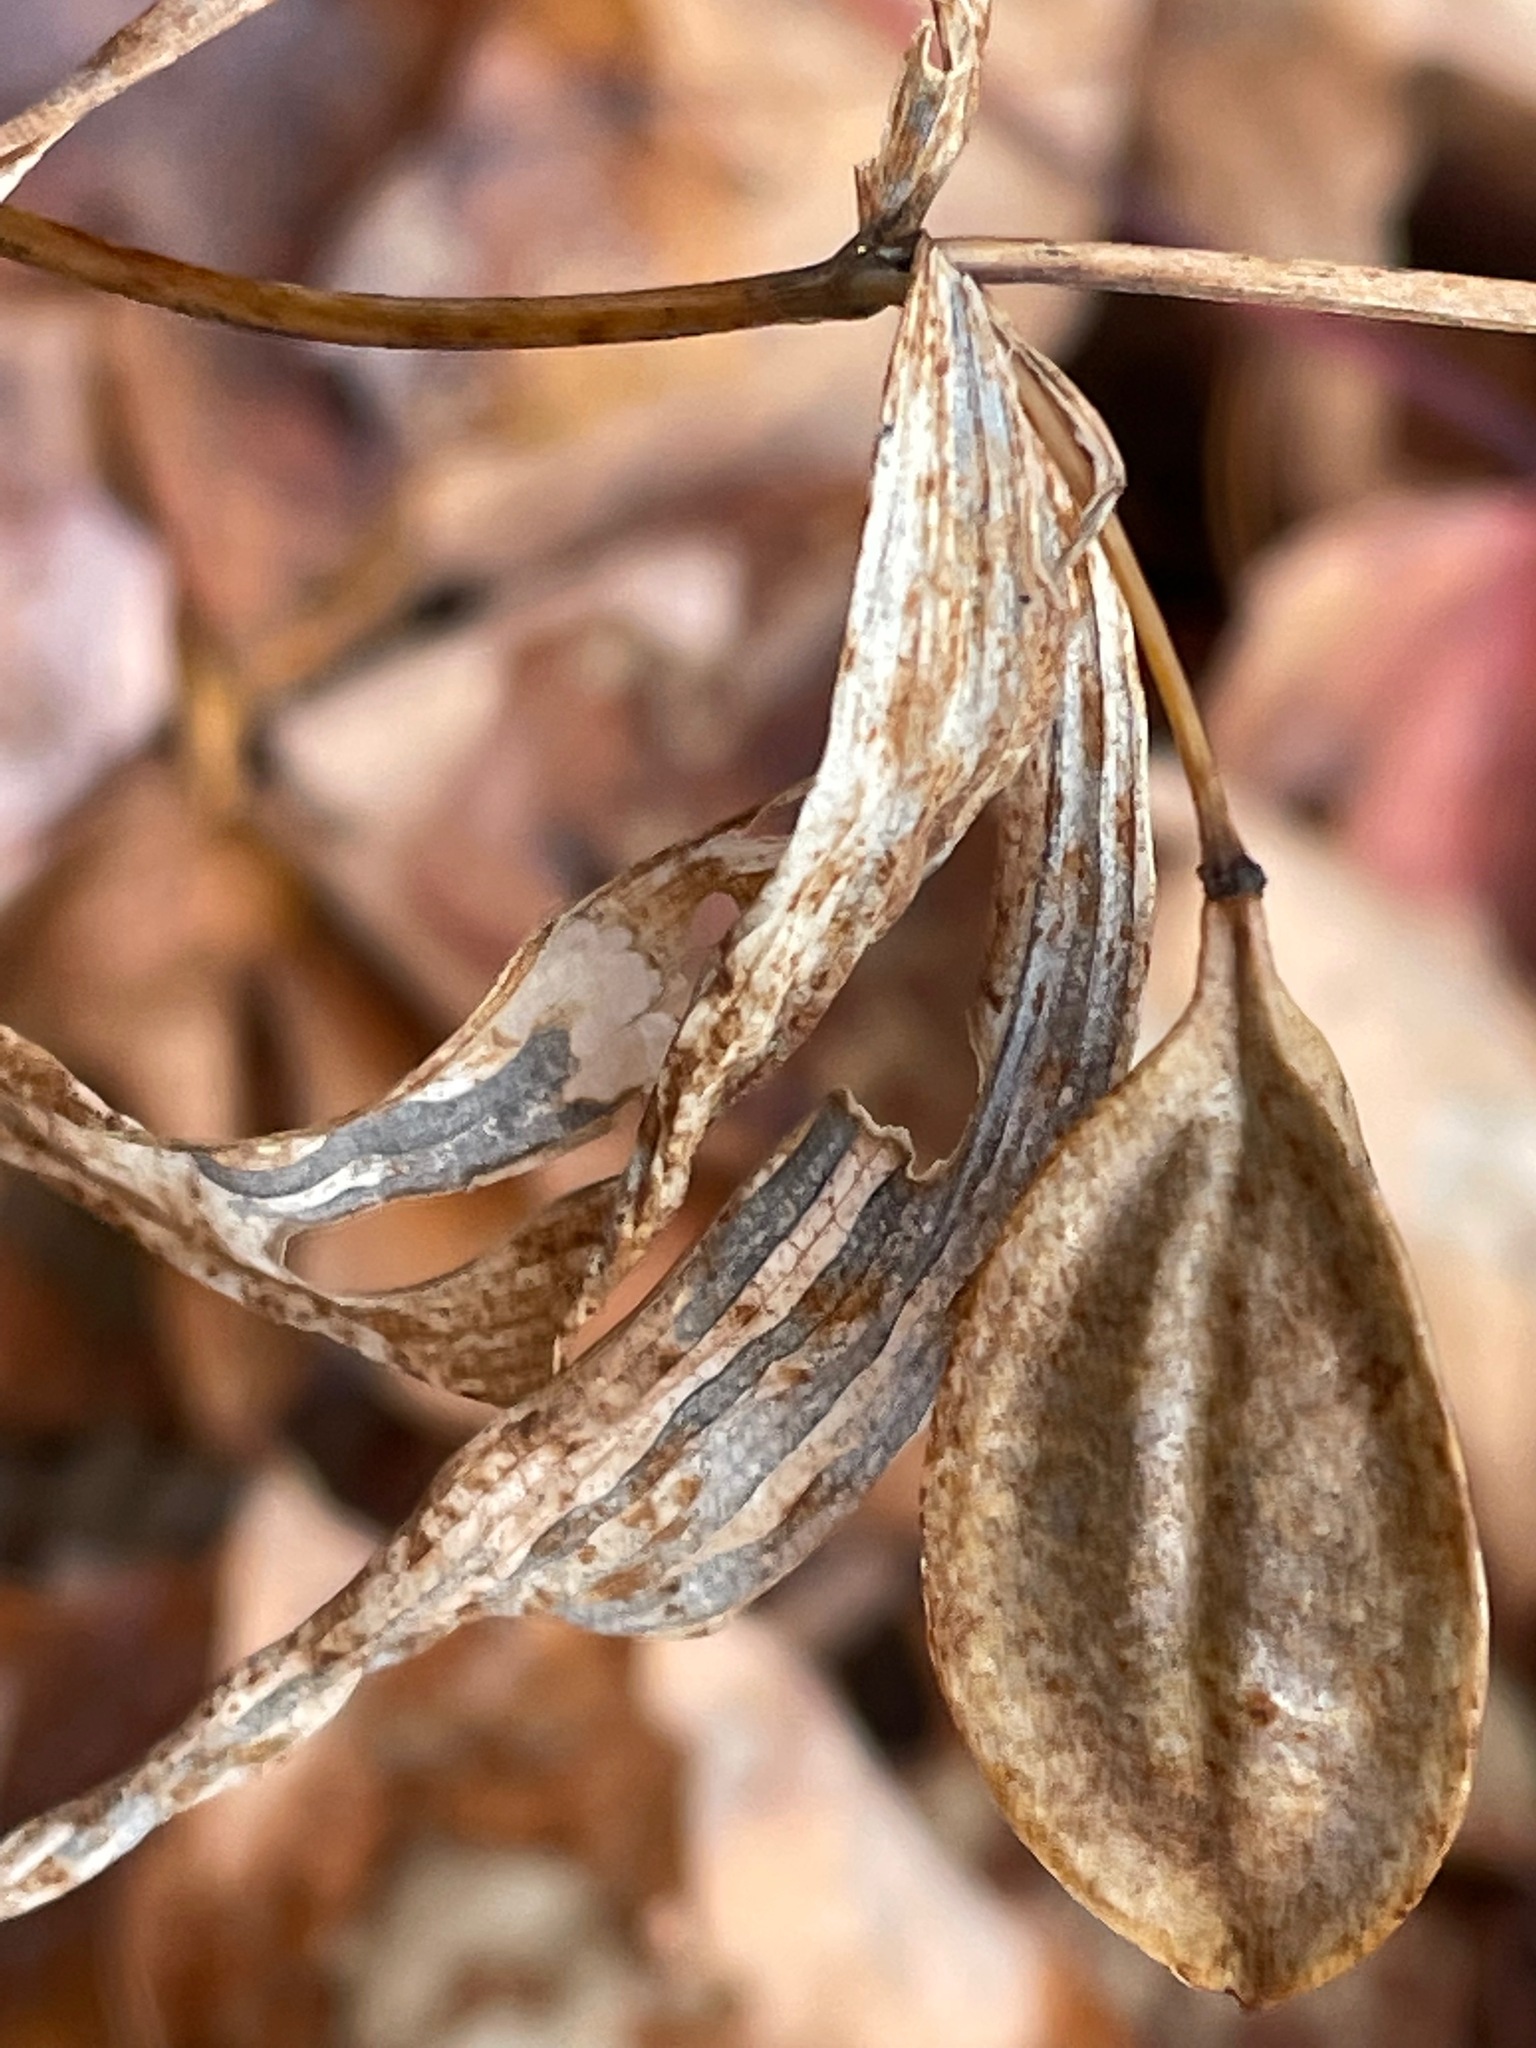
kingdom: Plantae
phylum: Tracheophyta
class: Liliopsida
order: Liliales
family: Colchicaceae
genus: Uvularia
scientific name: Uvularia sessilifolia
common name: Straw-lily
